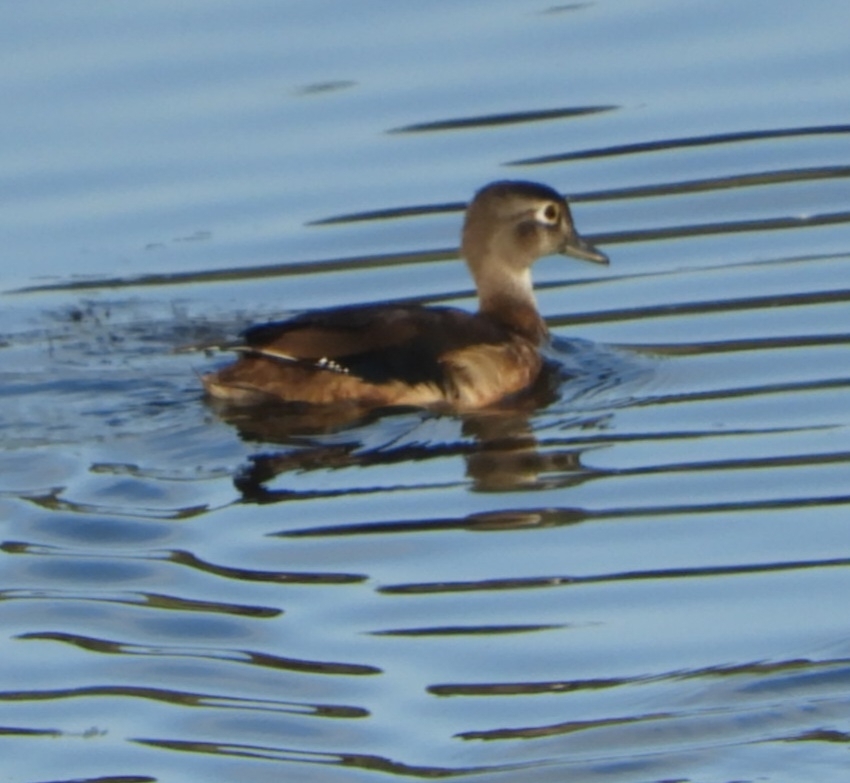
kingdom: Animalia
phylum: Chordata
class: Aves
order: Anseriformes
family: Anatidae
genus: Aix
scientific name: Aix sponsa
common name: Wood duck
